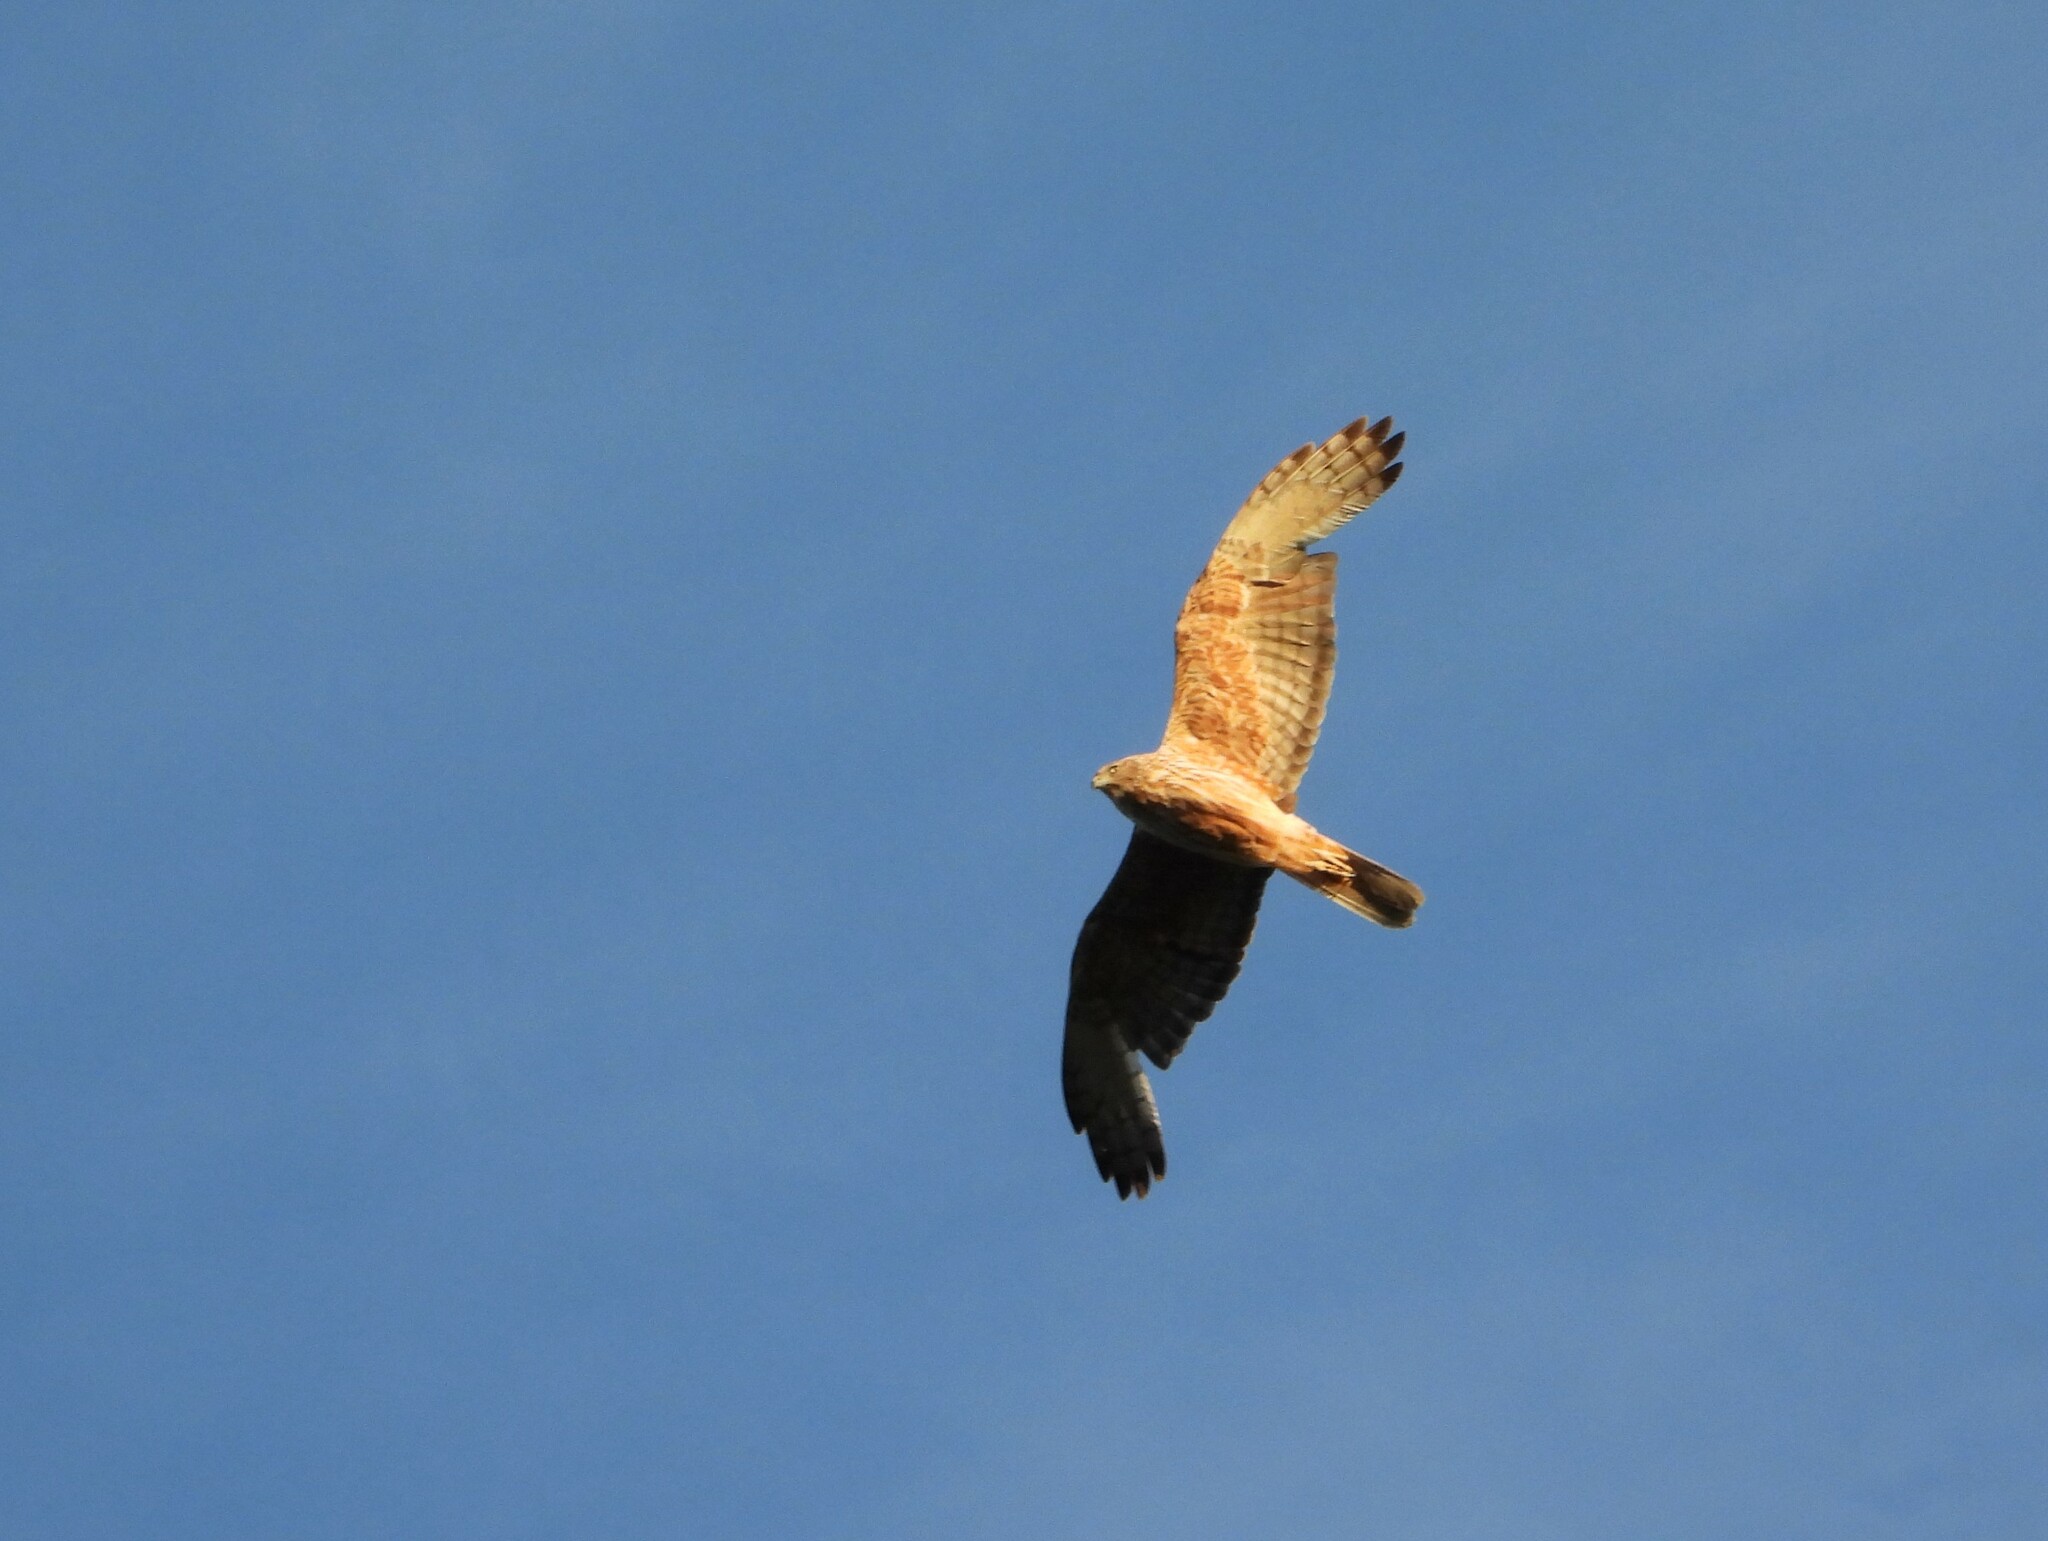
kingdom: Animalia
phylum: Chordata
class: Aves
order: Accipitriformes
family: Accipitridae
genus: Circus
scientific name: Circus approximans
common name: Swamp harrier
